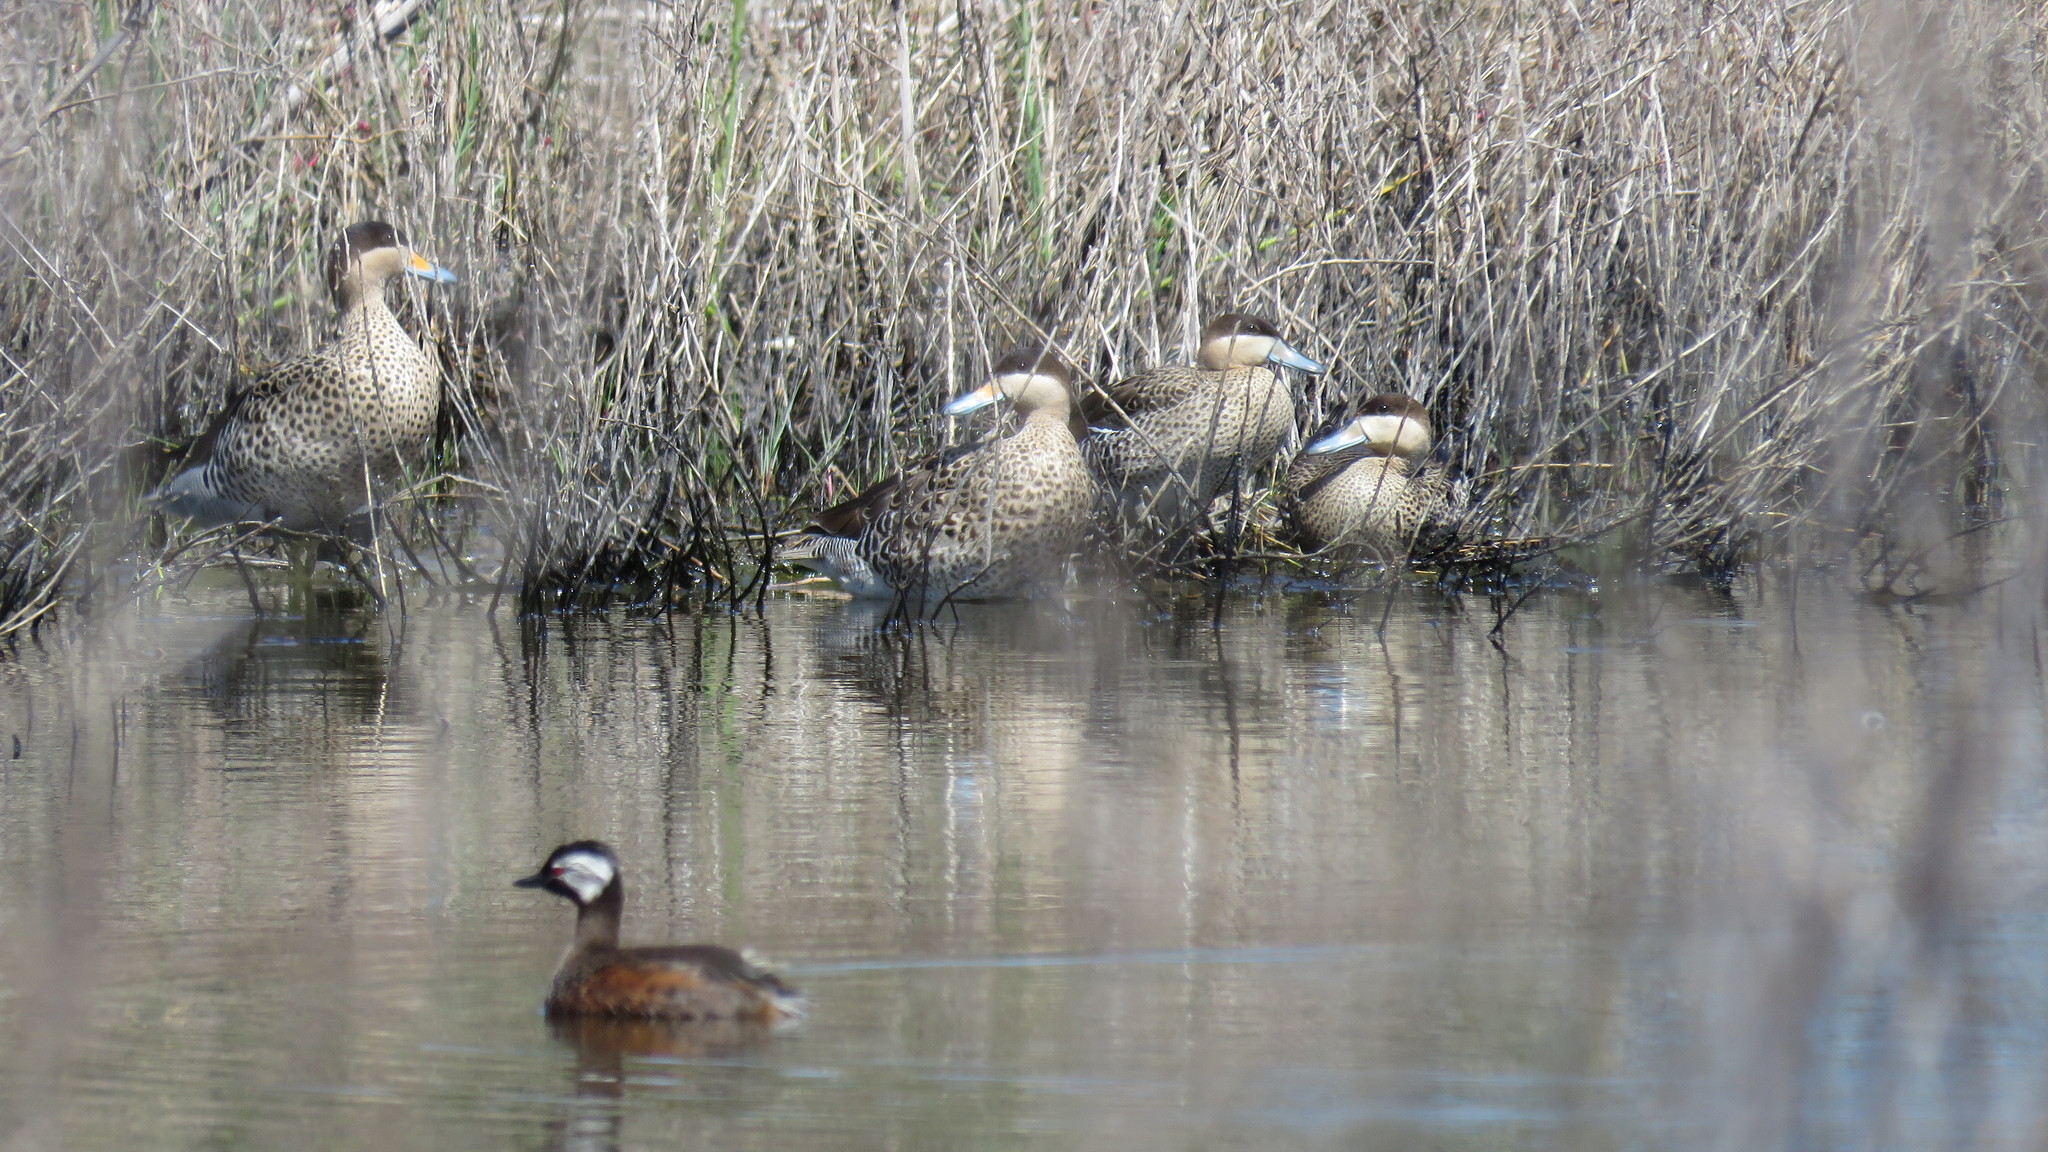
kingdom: Animalia
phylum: Chordata
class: Aves
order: Anseriformes
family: Anatidae
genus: Spatula
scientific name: Spatula versicolor
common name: Silver teal
